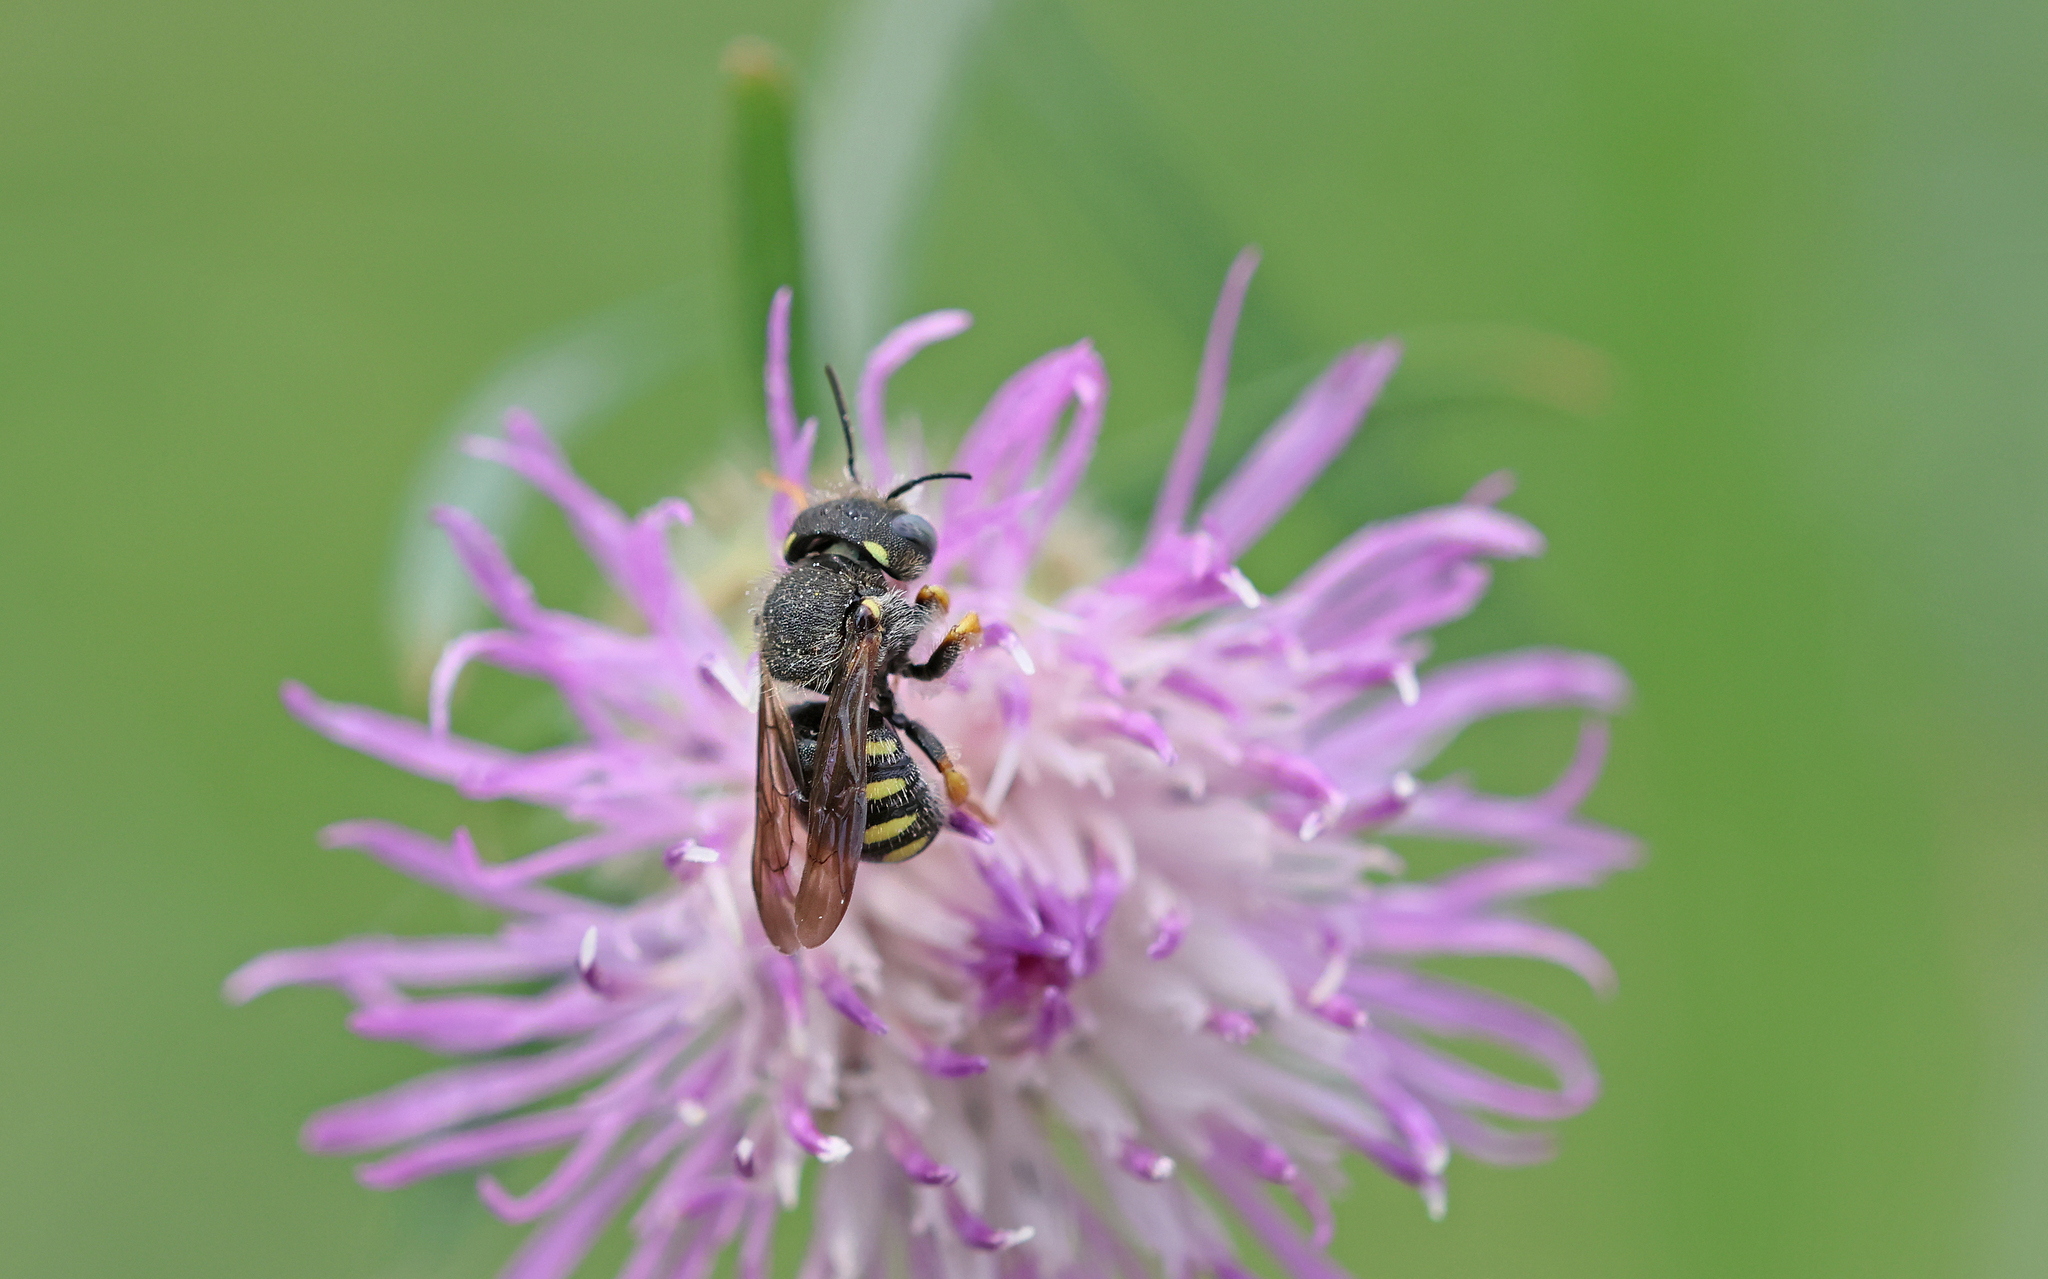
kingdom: Animalia
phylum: Arthropoda
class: Insecta
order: Hymenoptera
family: Megachilidae
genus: Pseudoanthidium
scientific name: Pseudoanthidium nanum
